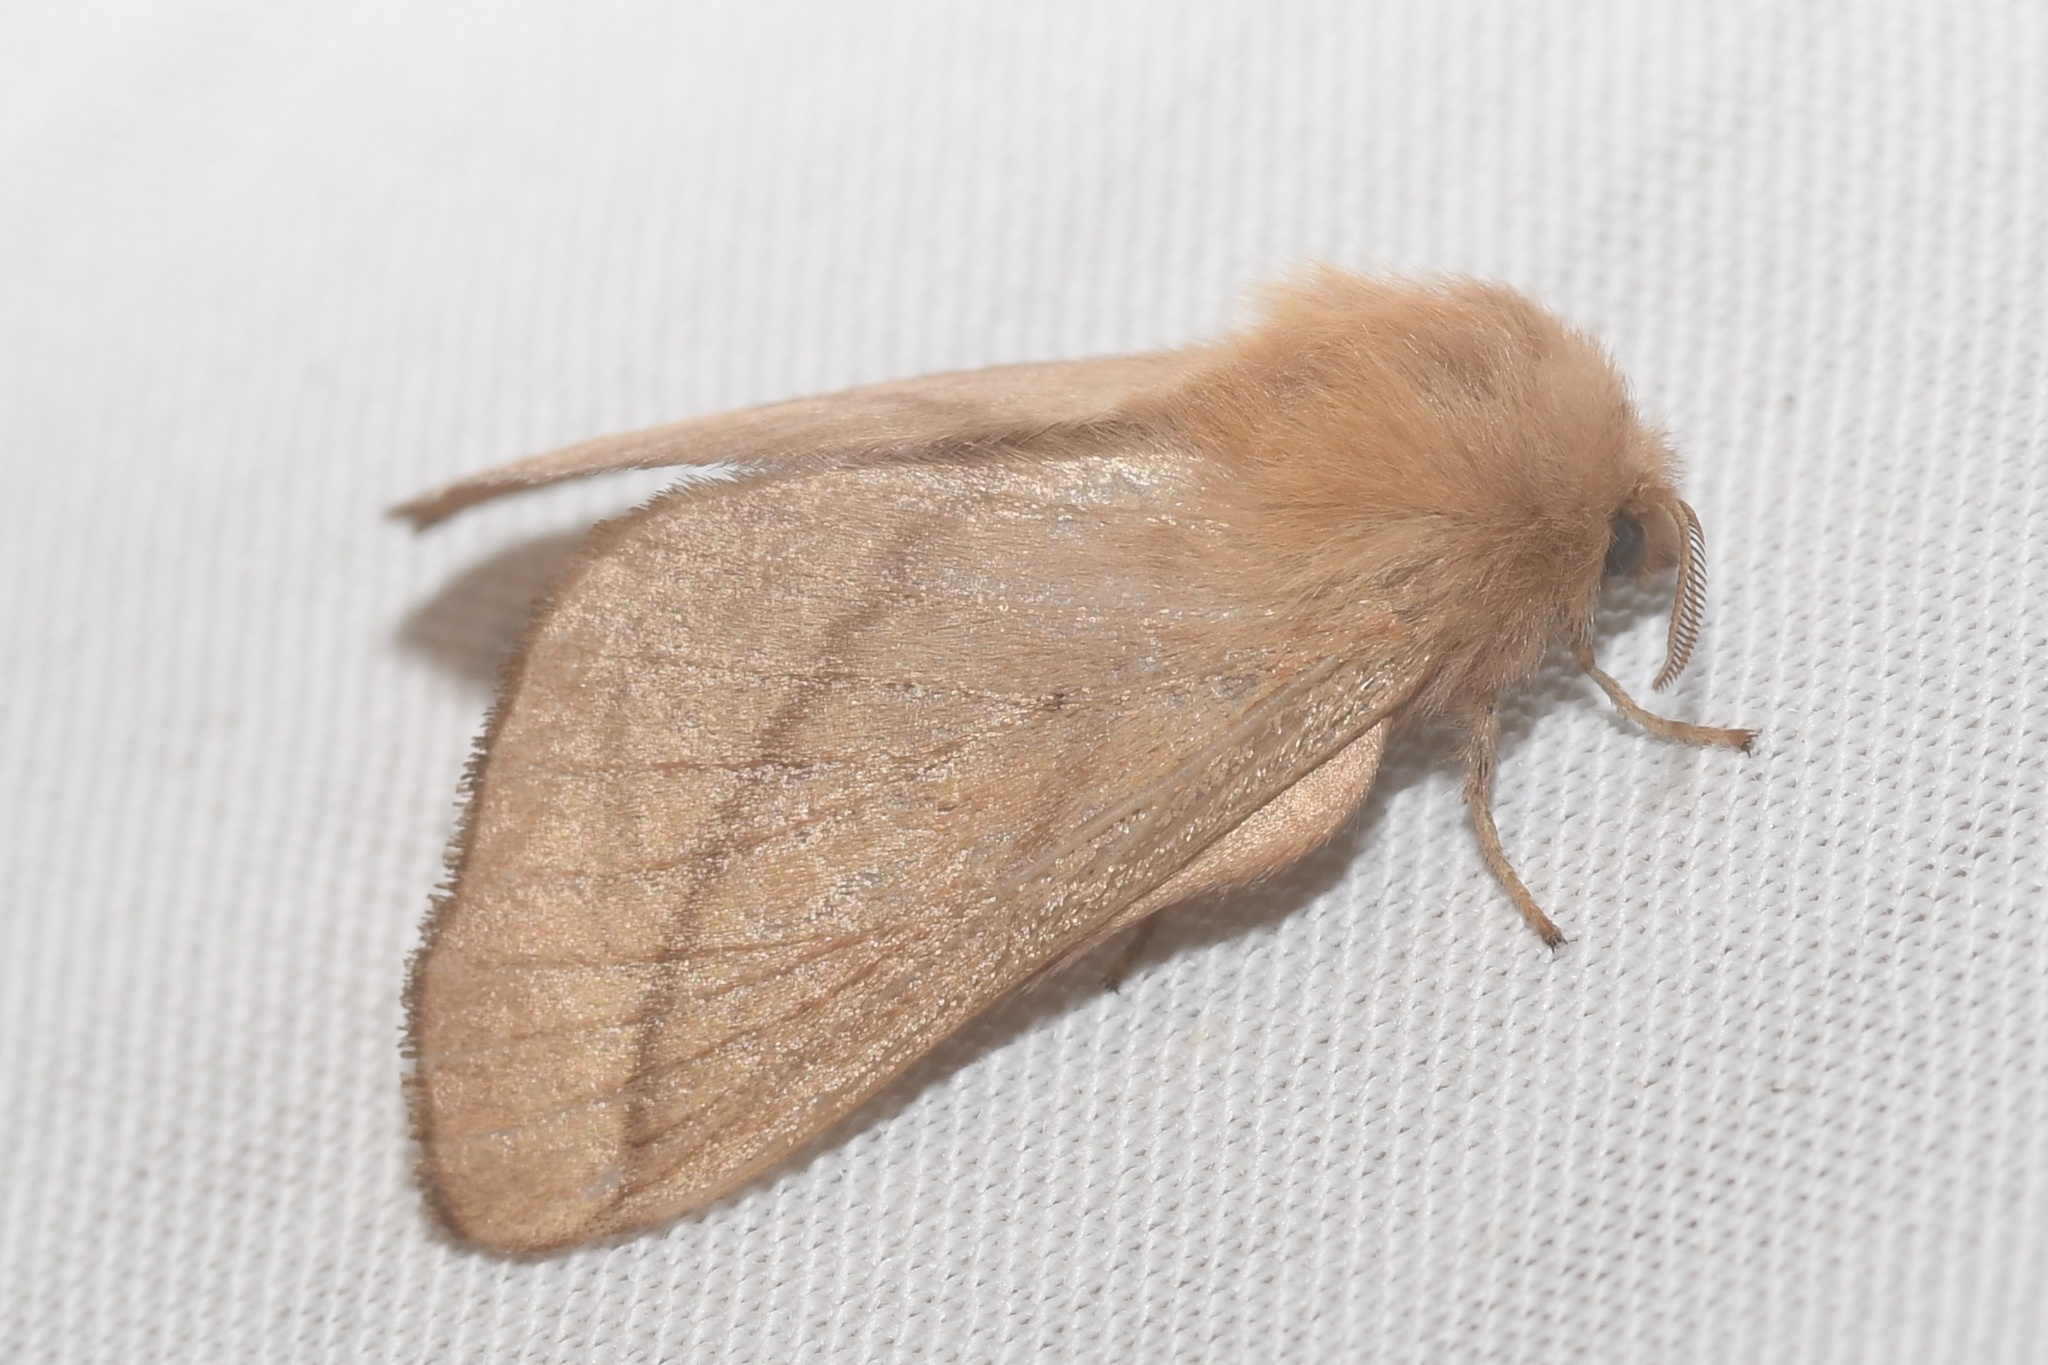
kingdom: Animalia
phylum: Arthropoda
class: Insecta
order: Lepidoptera
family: Lasiocampidae
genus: Malacosoma
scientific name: Malacosoma disstria
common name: Forest tent caterpillar
